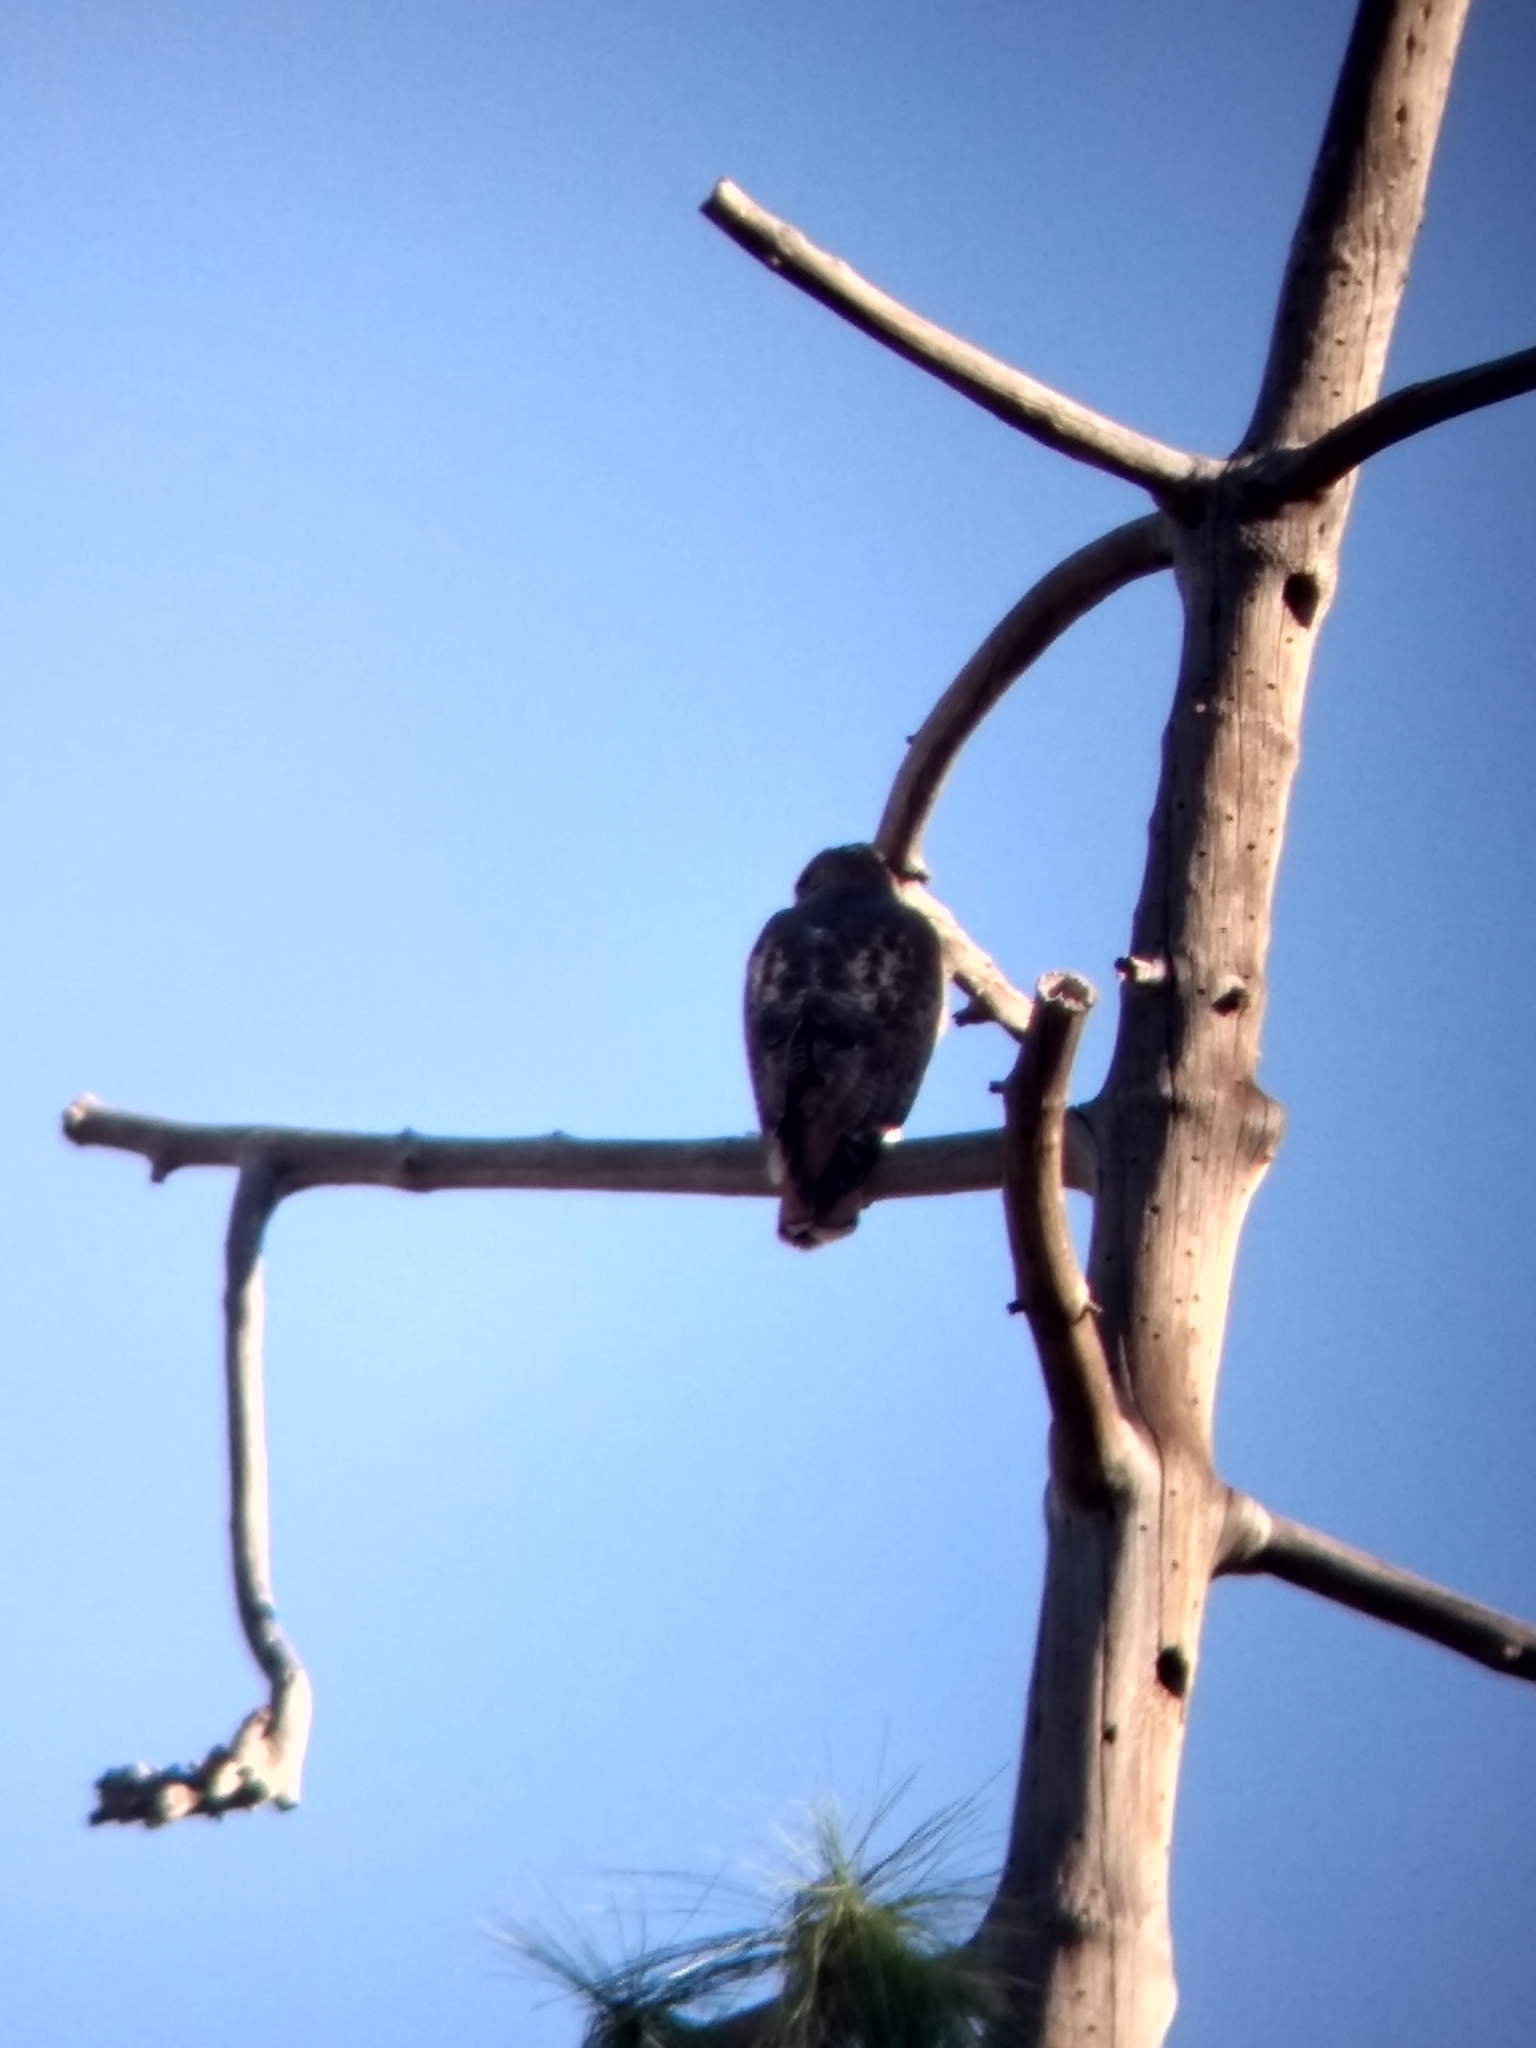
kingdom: Animalia
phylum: Chordata
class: Aves
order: Accipitriformes
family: Accipitridae
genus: Buteo
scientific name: Buteo jamaicensis
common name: Red-tailed hawk
